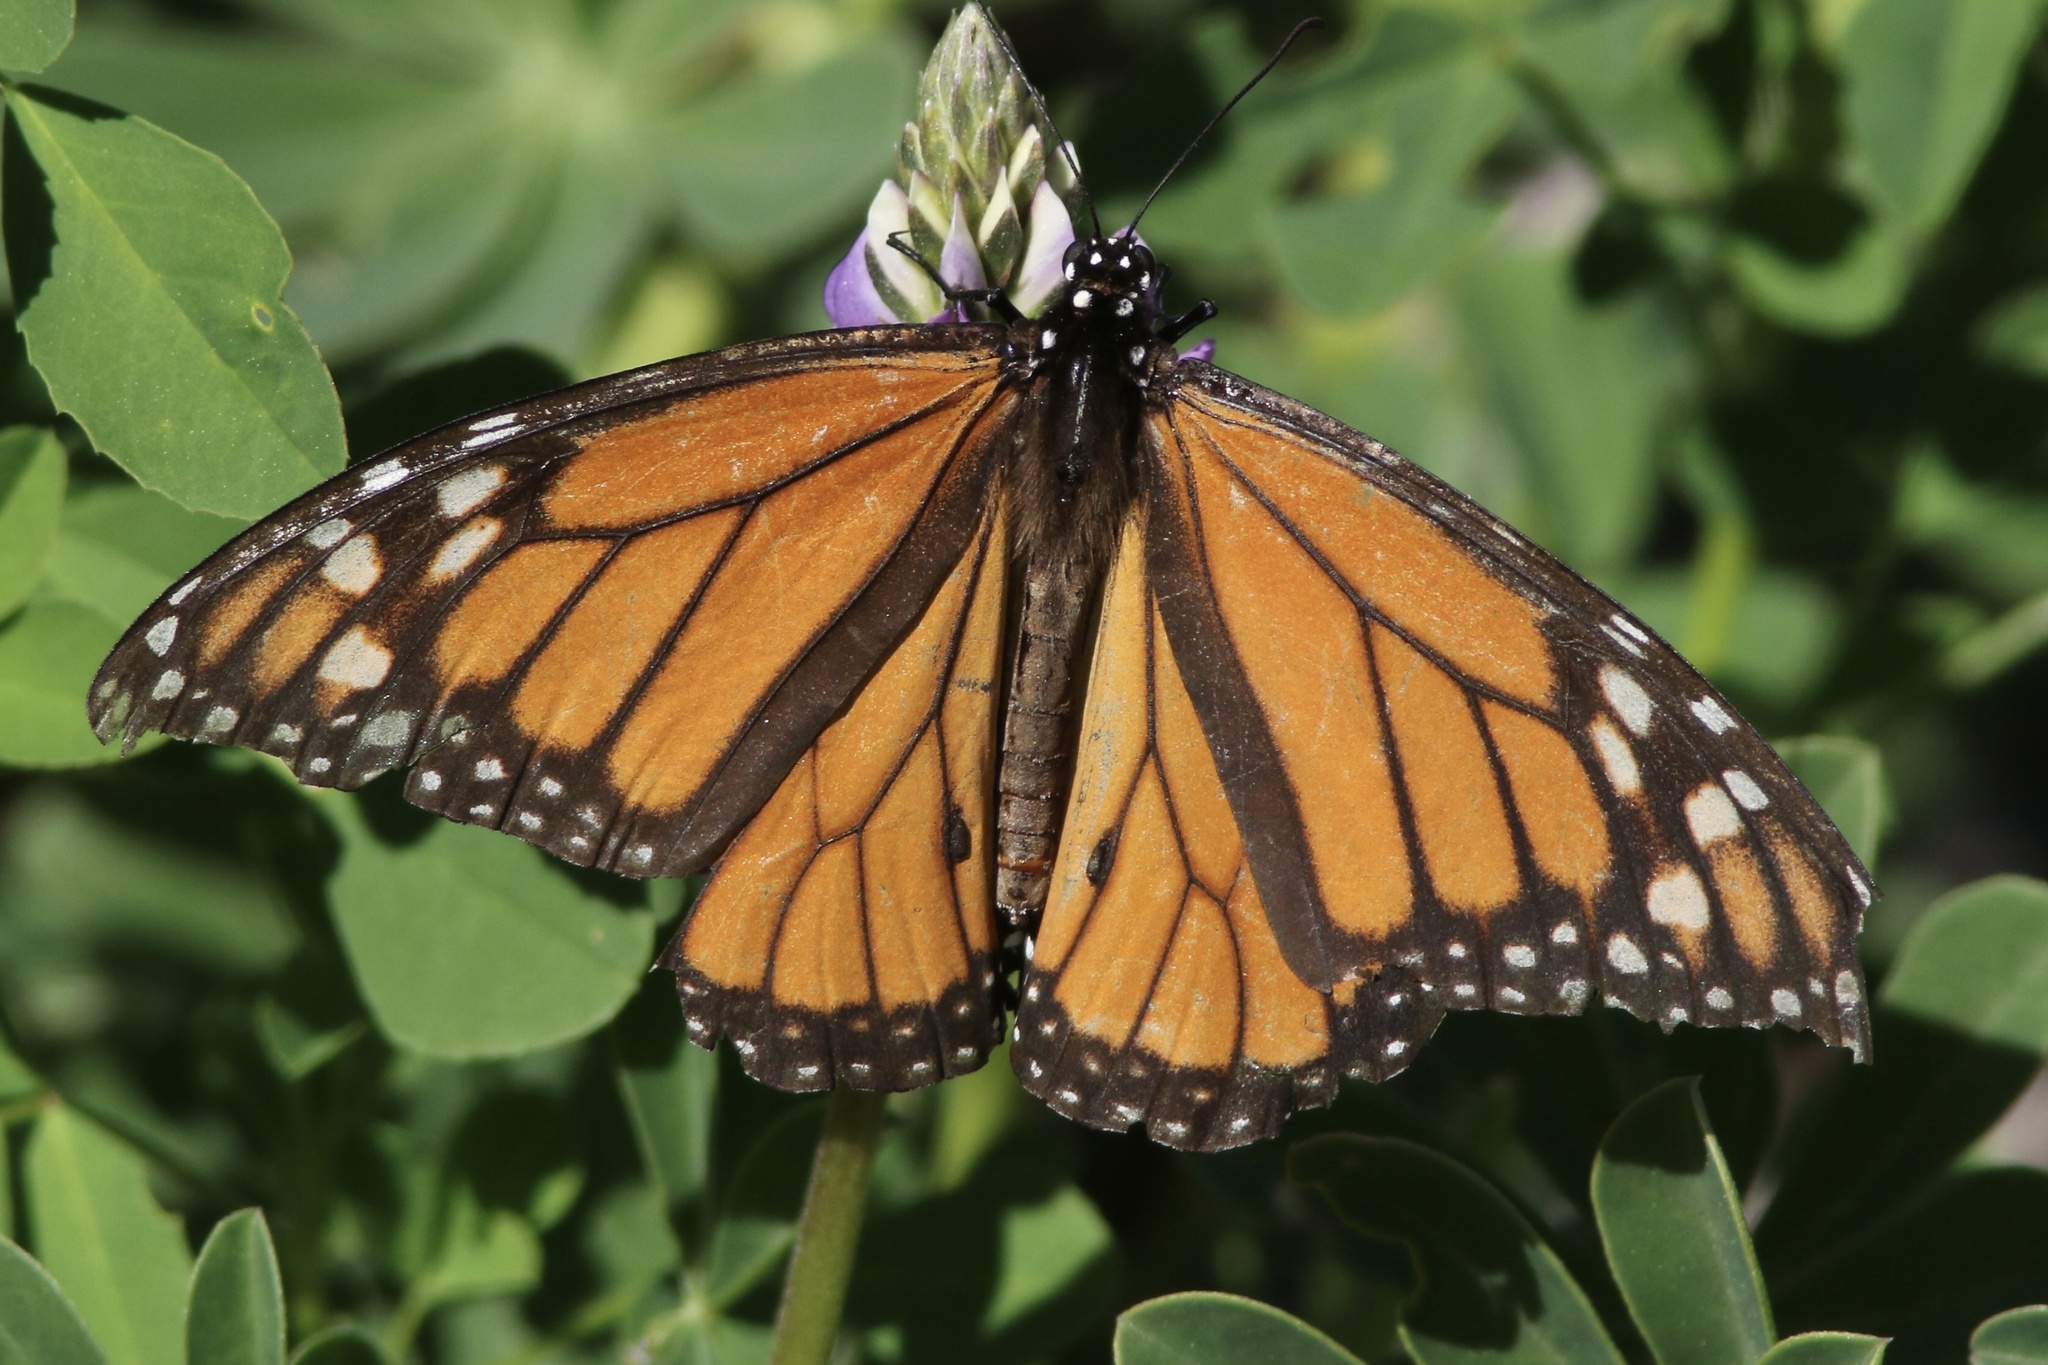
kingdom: Animalia
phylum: Arthropoda
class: Insecta
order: Lepidoptera
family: Nymphalidae
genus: Danaus
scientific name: Danaus plexippus
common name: Monarch
